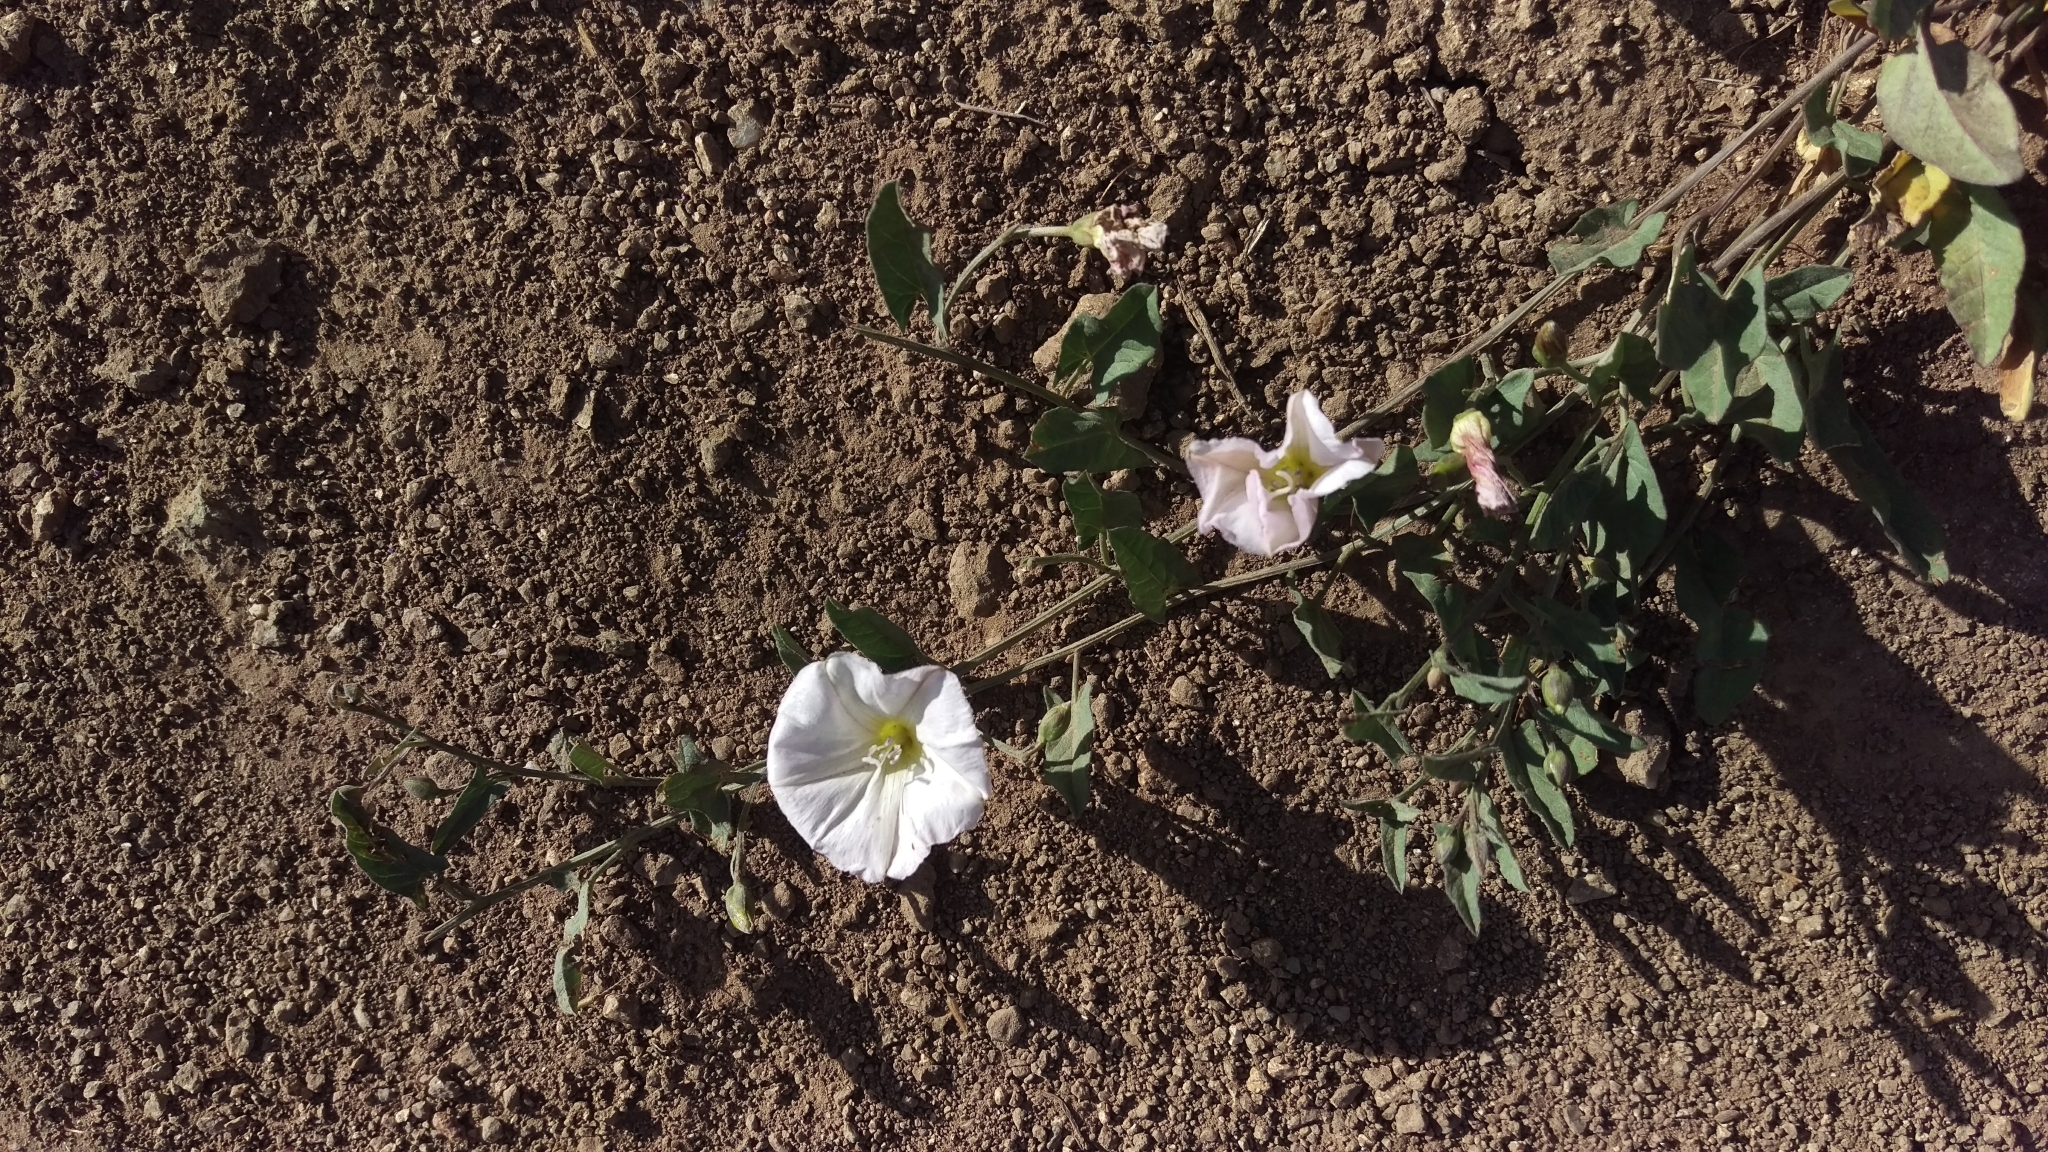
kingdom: Plantae
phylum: Tracheophyta
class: Magnoliopsida
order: Solanales
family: Convolvulaceae
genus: Convolvulus
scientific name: Convolvulus arvensis
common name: Field bindweed
